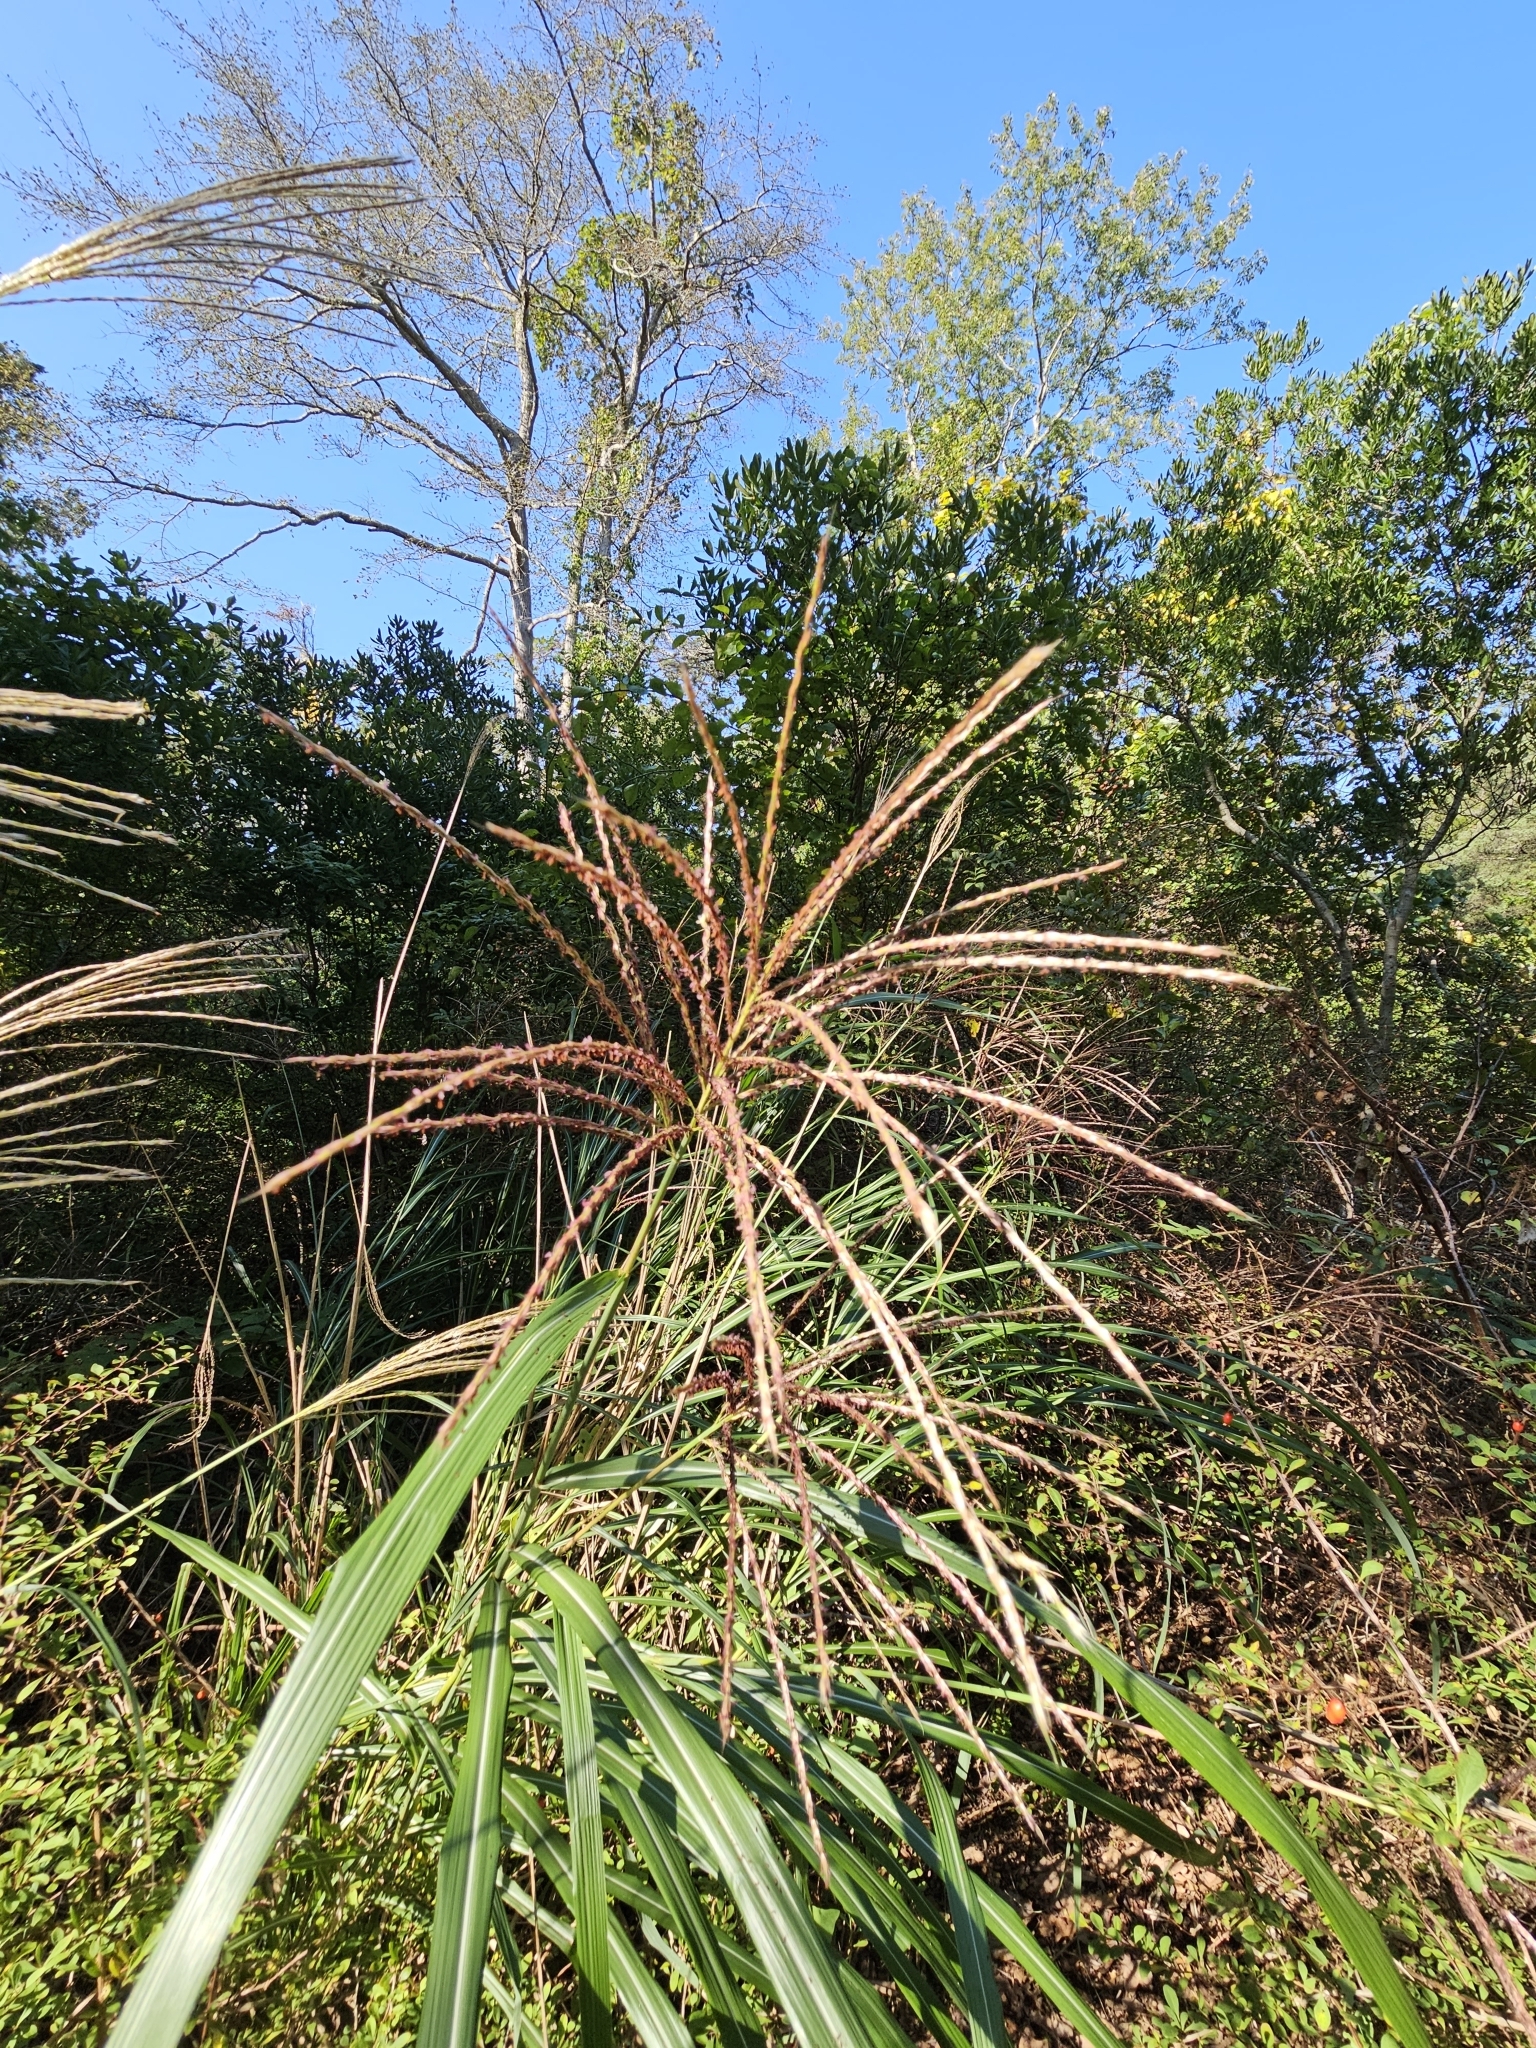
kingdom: Plantae
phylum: Tracheophyta
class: Liliopsida
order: Poales
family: Poaceae
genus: Miscanthus
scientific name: Miscanthus sinensis
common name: Chinese silvergrass
